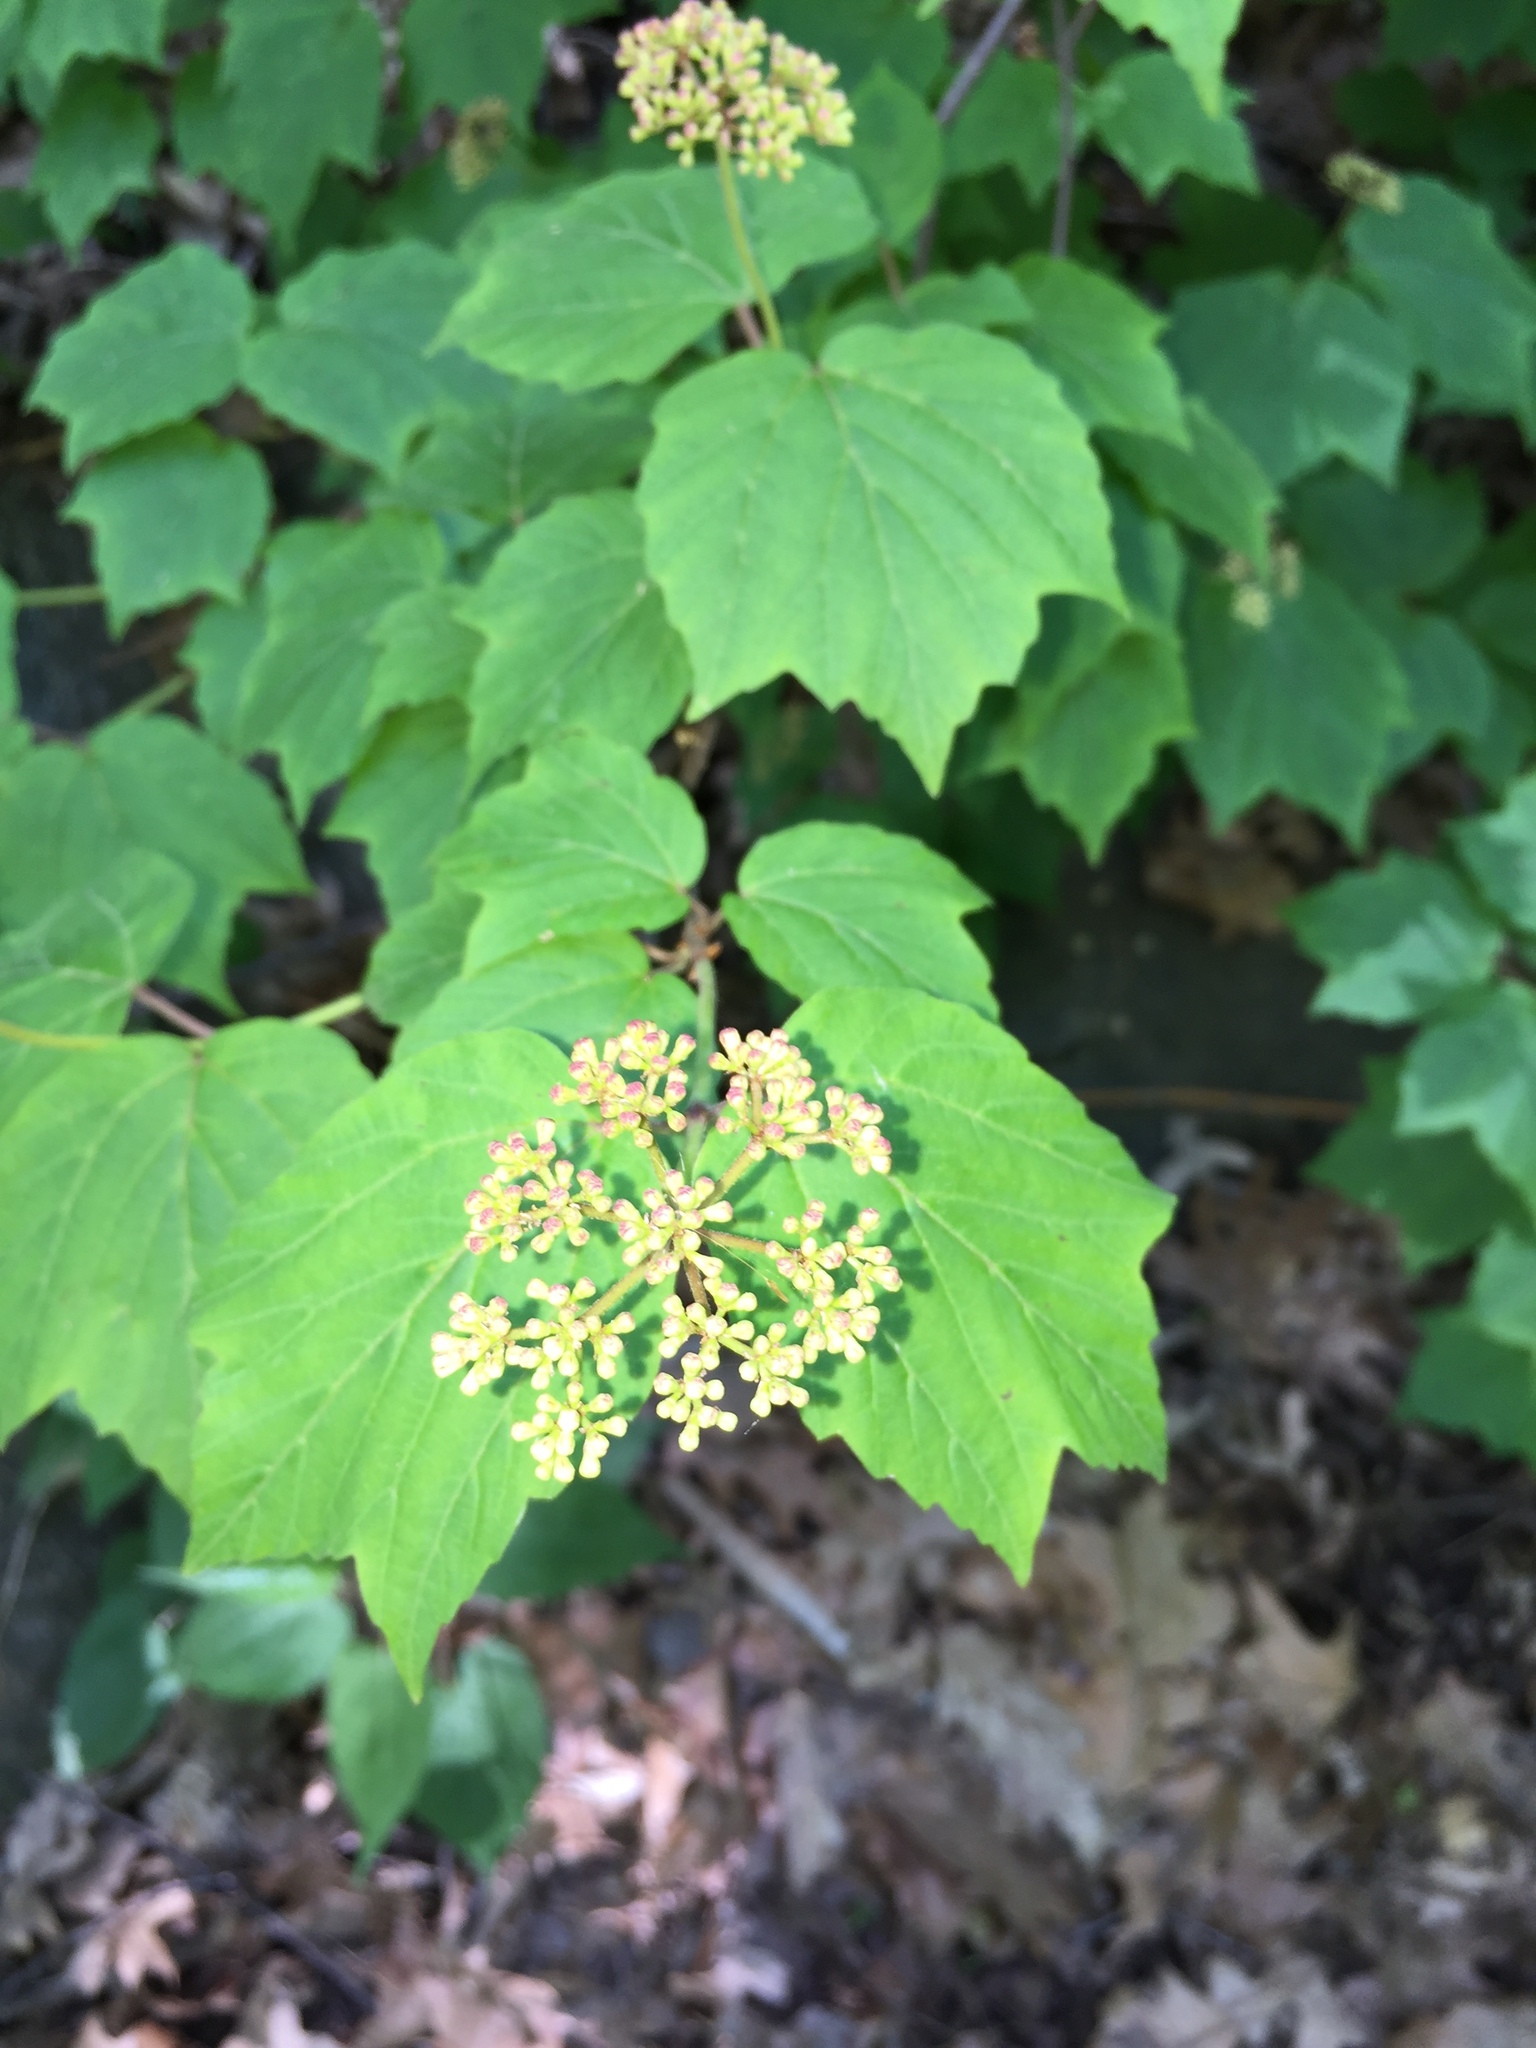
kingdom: Plantae
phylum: Tracheophyta
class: Magnoliopsida
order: Dipsacales
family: Viburnaceae
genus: Viburnum
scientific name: Viburnum acerifolium
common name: Dockmackie
